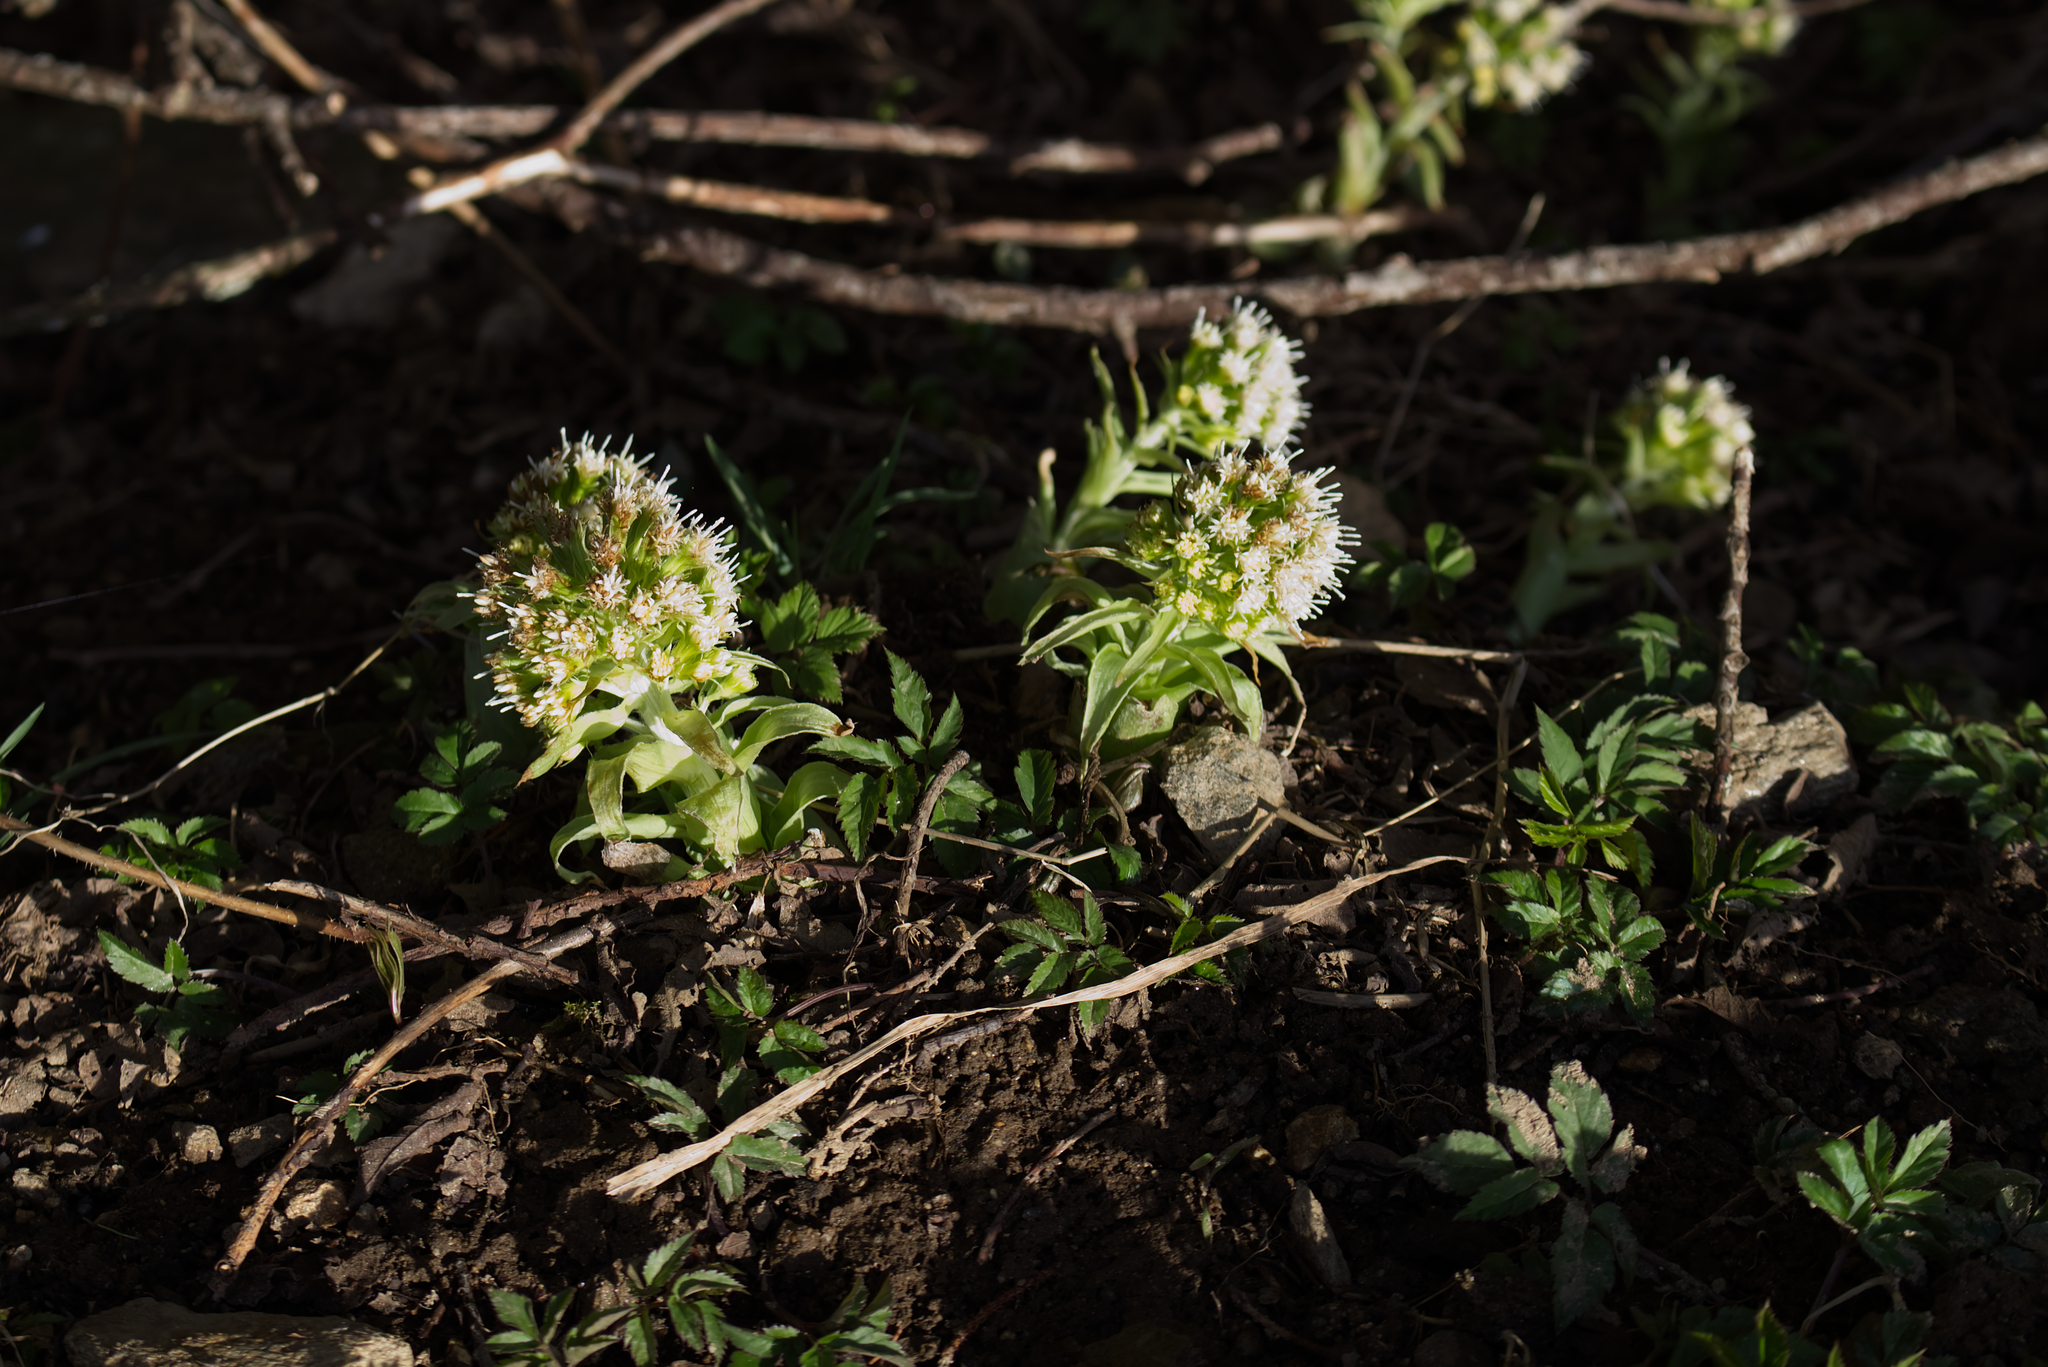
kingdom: Plantae
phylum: Tracheophyta
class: Magnoliopsida
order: Asterales
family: Asteraceae
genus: Petasites
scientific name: Petasites albus
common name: White butterbur
